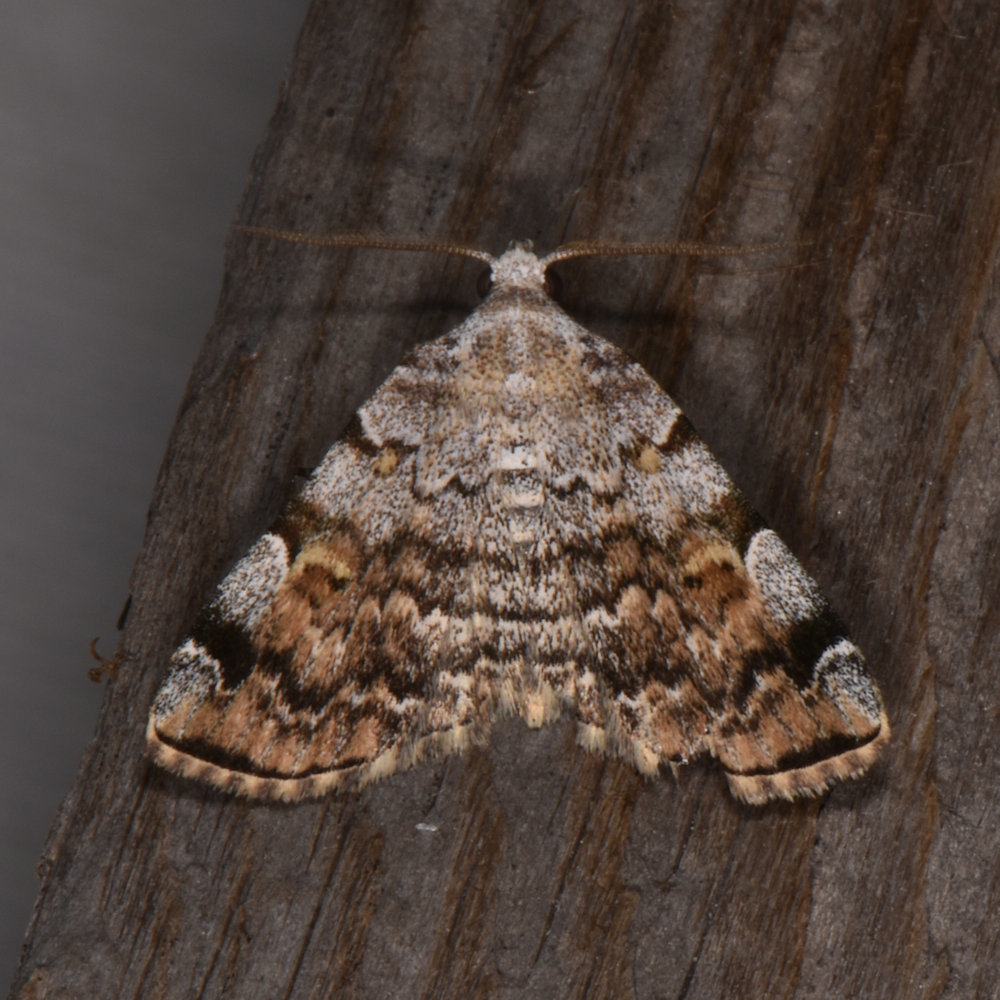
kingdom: Animalia
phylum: Arthropoda
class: Insecta
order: Lepidoptera
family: Erebidae
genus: Idia
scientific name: Idia americalis
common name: American idia moth
